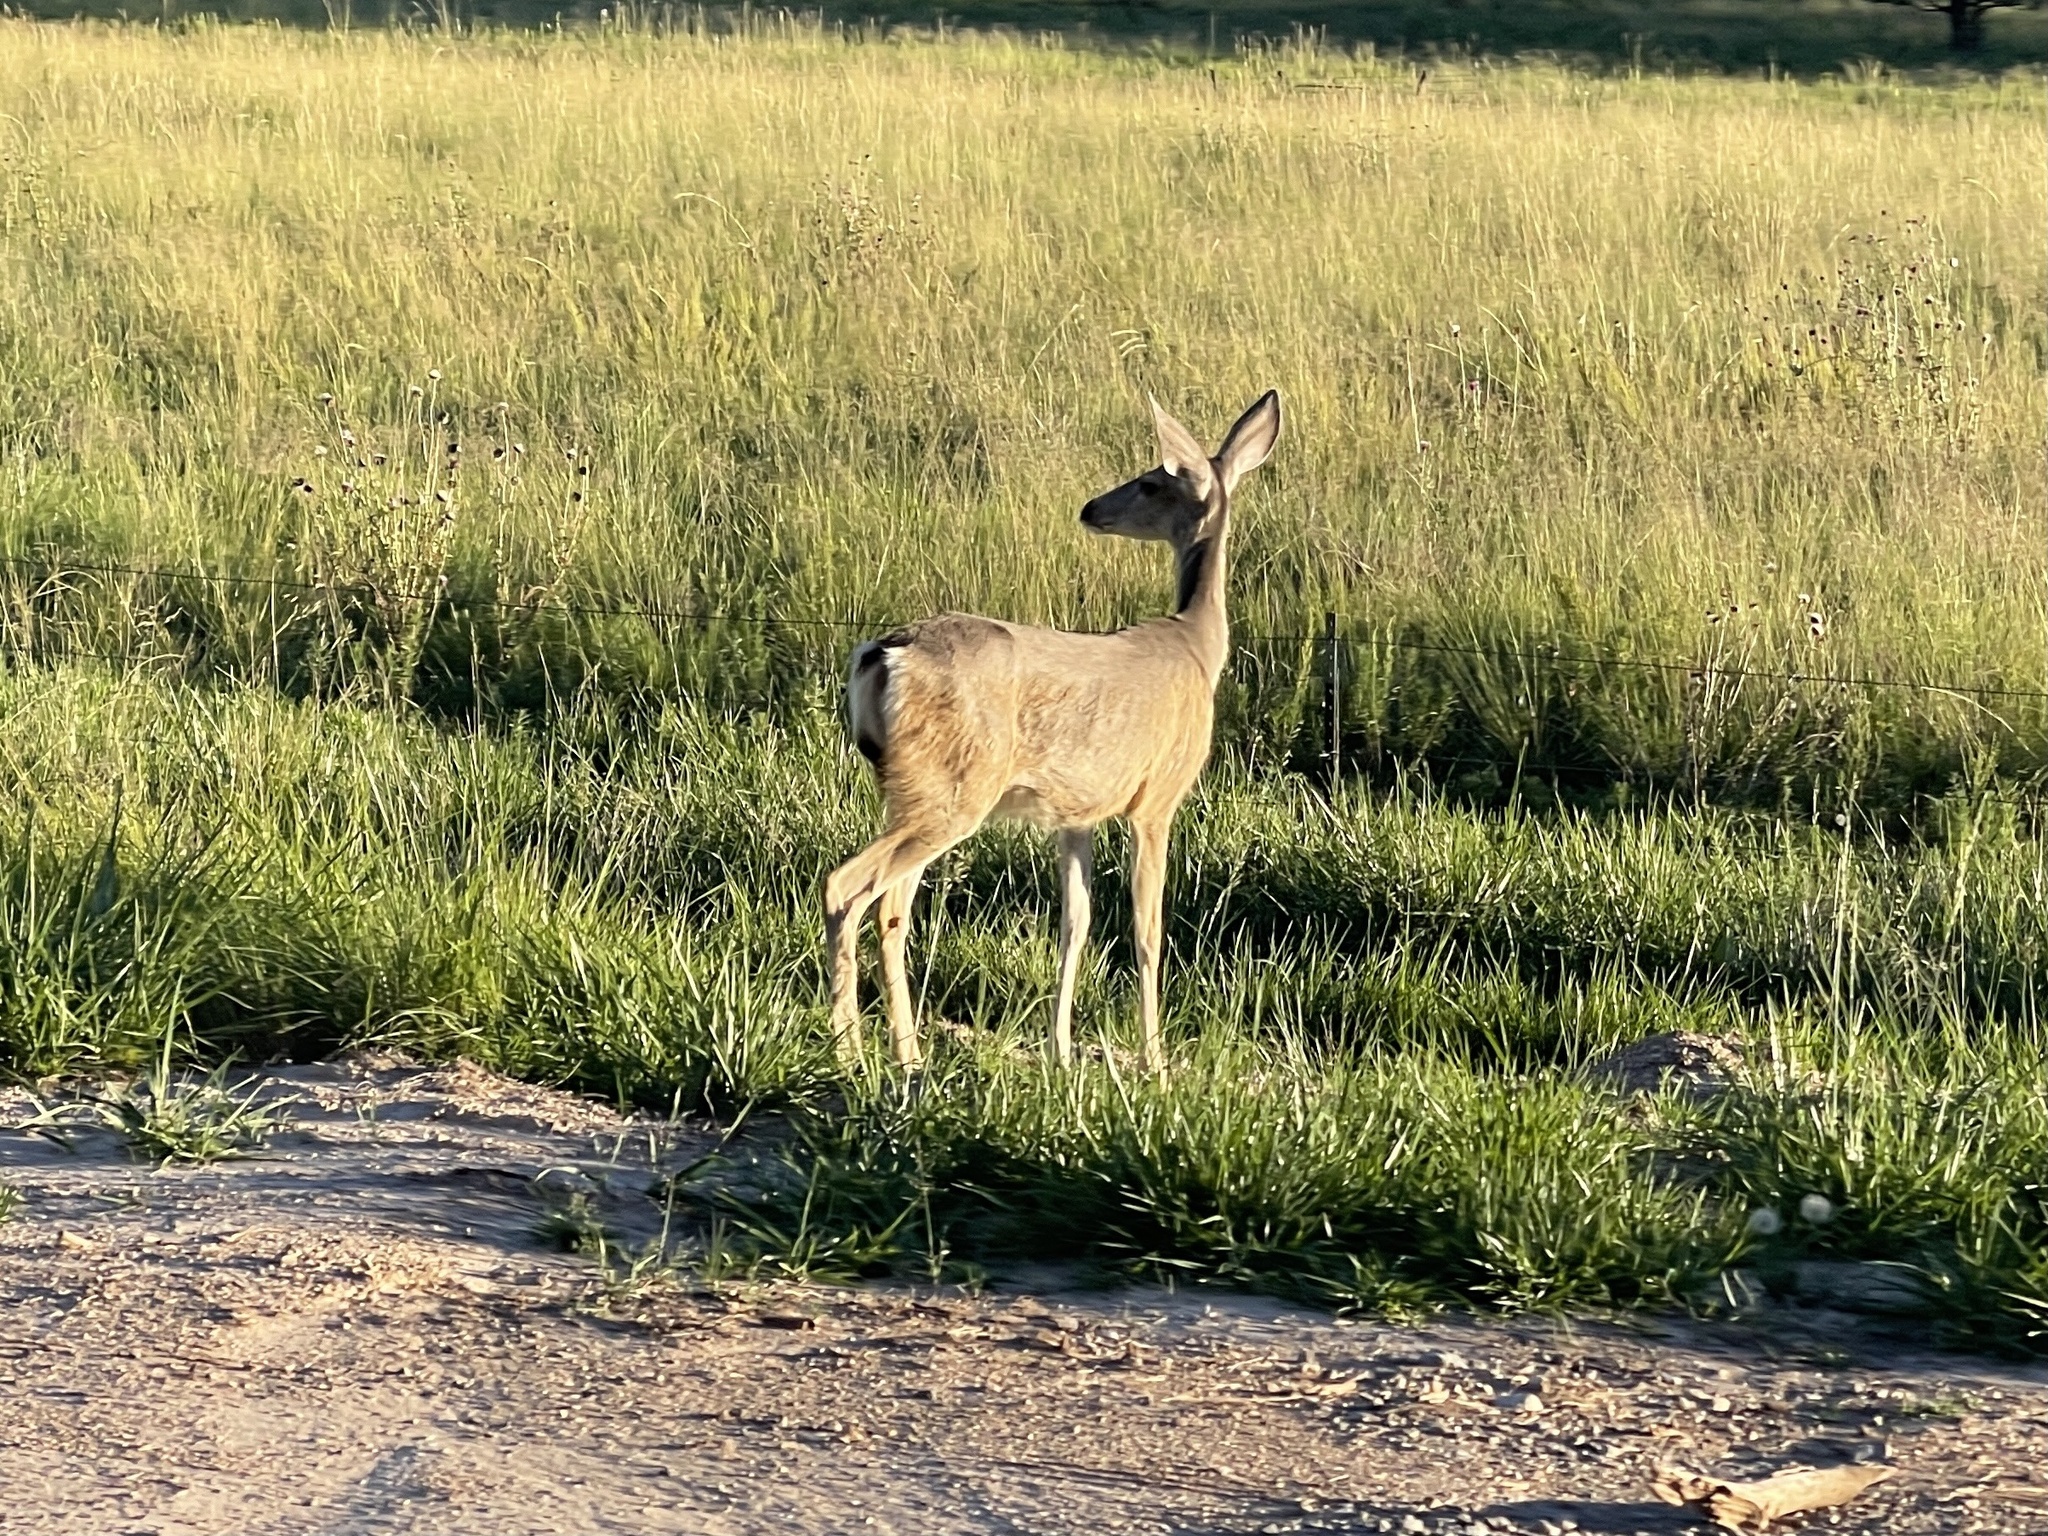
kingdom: Animalia
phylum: Chordata
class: Mammalia
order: Artiodactyla
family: Cervidae
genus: Odocoileus
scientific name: Odocoileus hemionus
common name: Mule deer
